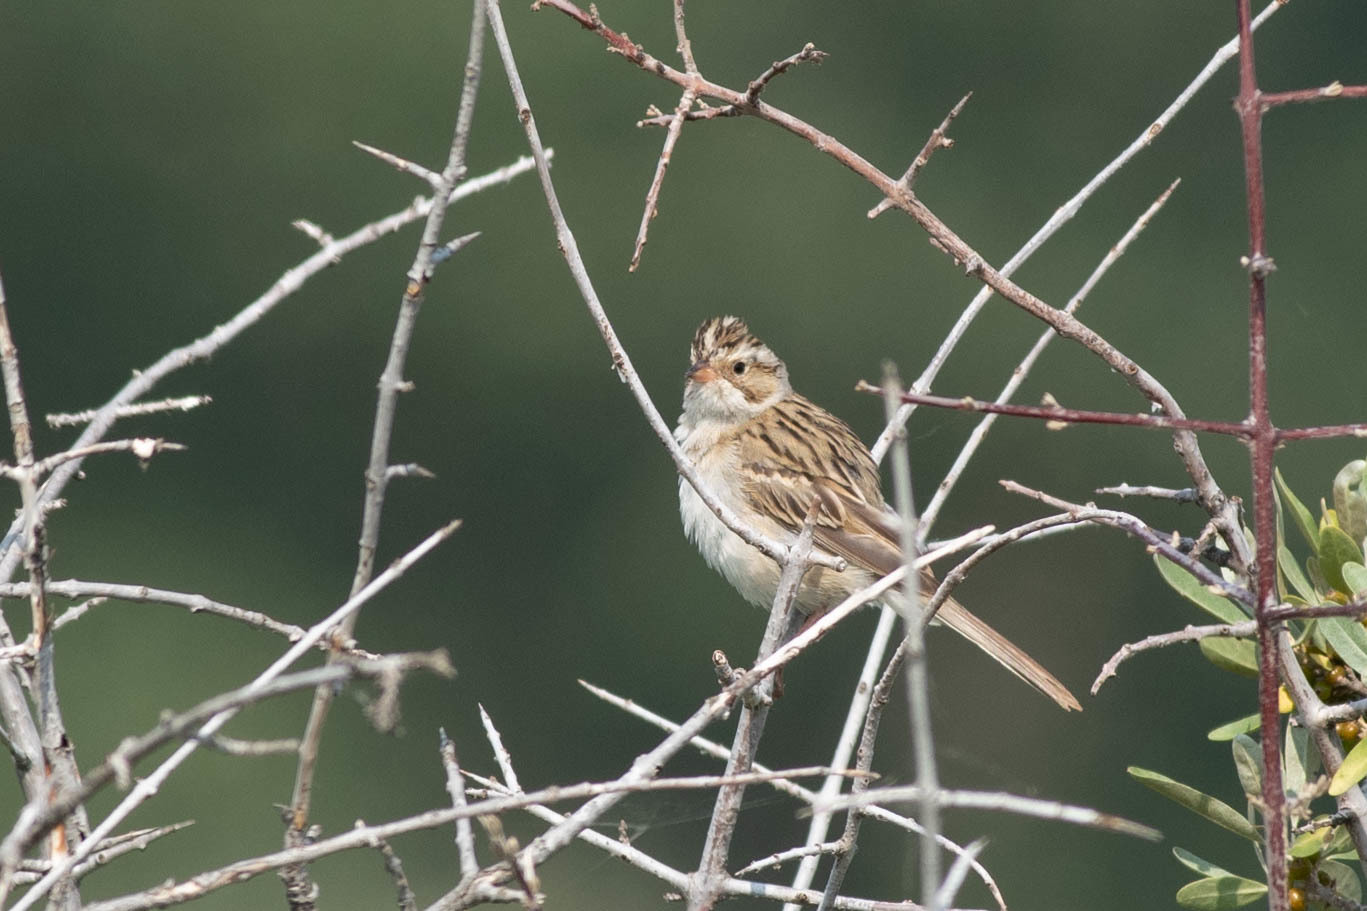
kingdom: Animalia
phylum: Chordata
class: Aves
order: Passeriformes
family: Passerellidae
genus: Spizella
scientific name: Spizella pallida
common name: Clay-colored sparrow
